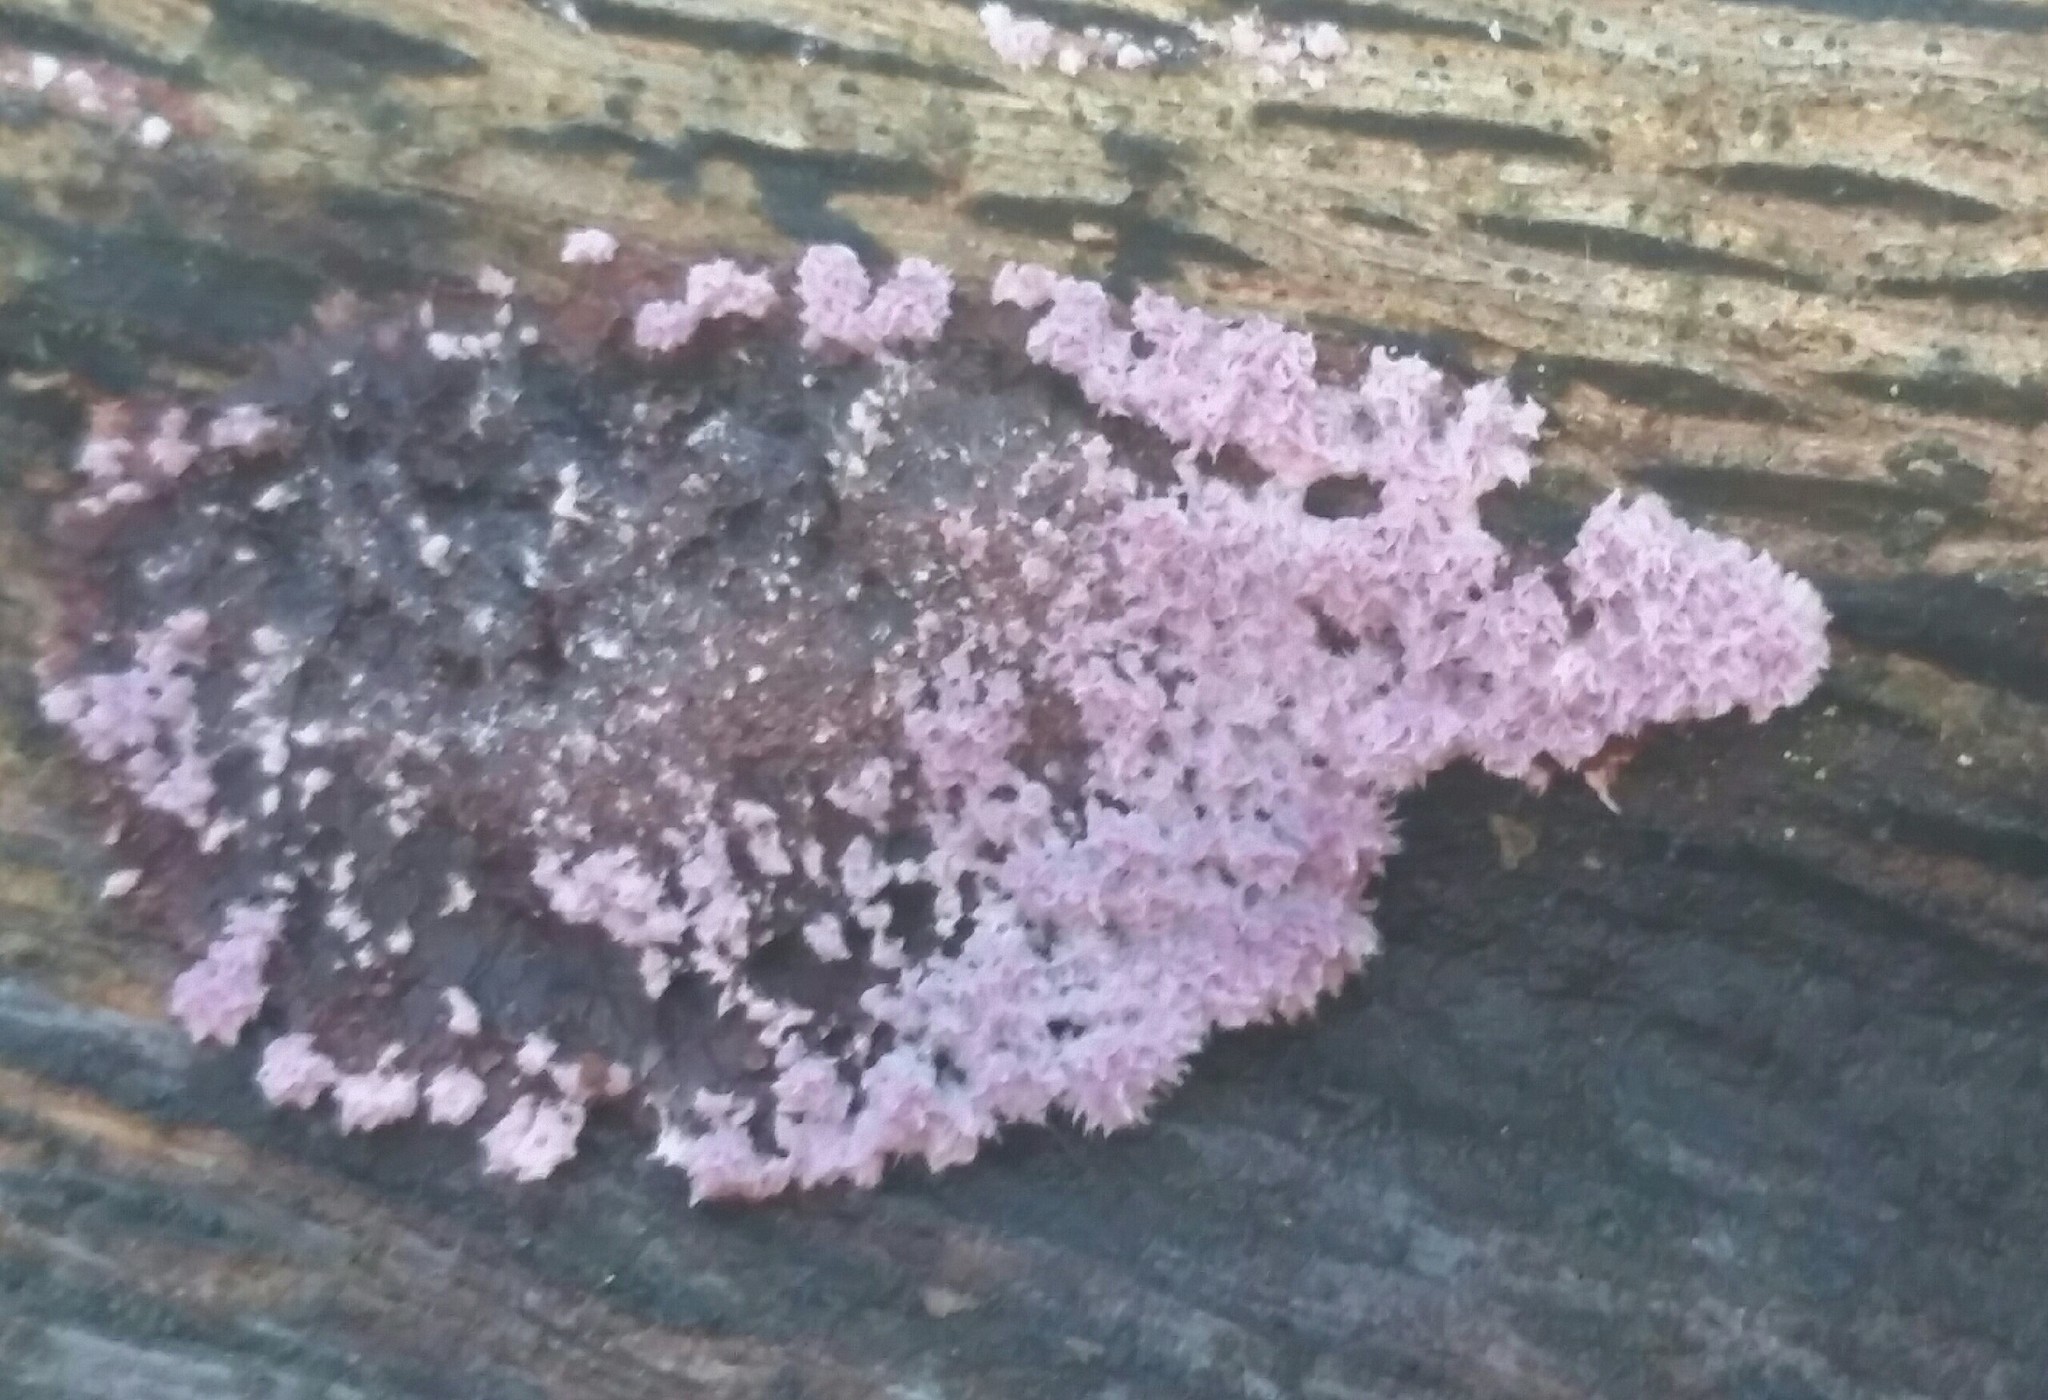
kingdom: Fungi
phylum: Basidiomycota
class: Agaricomycetes
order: Corticiales
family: Punctulariaceae
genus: Punctularia
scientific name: Punctularia atropurpurascens
